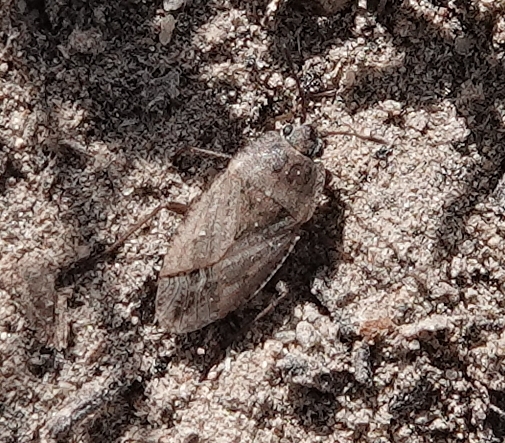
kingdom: Animalia
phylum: Arthropoda
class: Insecta
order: Hemiptera
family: Rhyparochromidae
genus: Emblethis
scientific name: Emblethis vicarius
